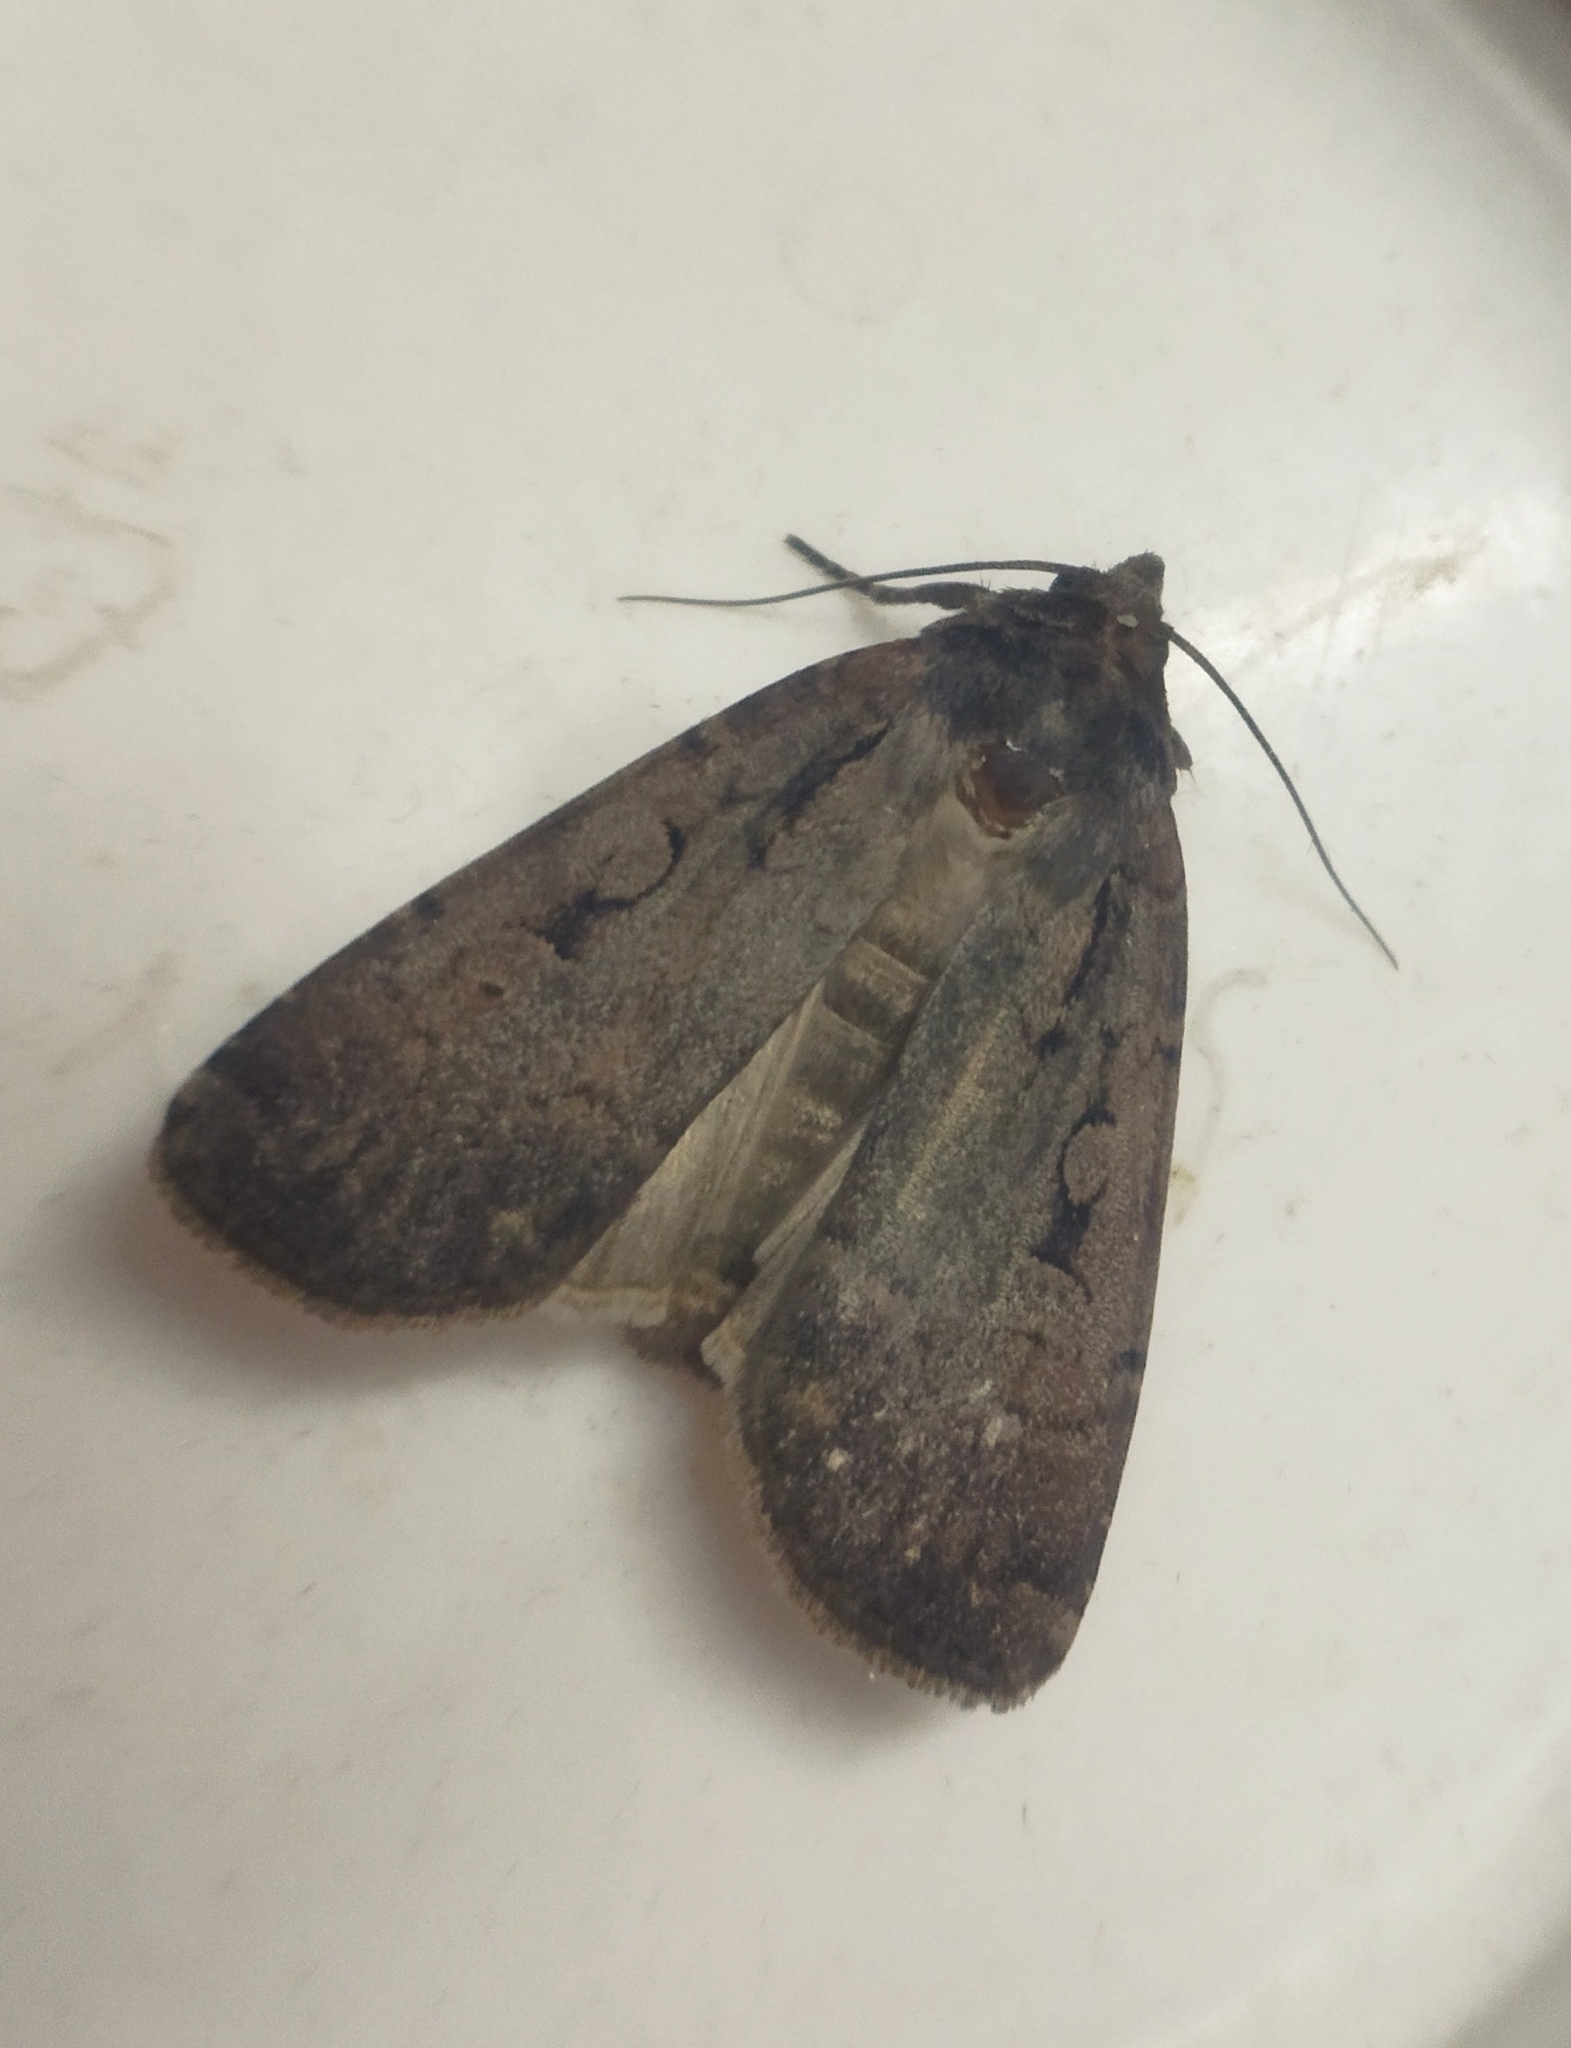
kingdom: Animalia
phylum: Arthropoda
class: Insecta
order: Lepidoptera
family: Noctuidae
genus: Graphiphora
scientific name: Graphiphora augur
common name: Double dart
